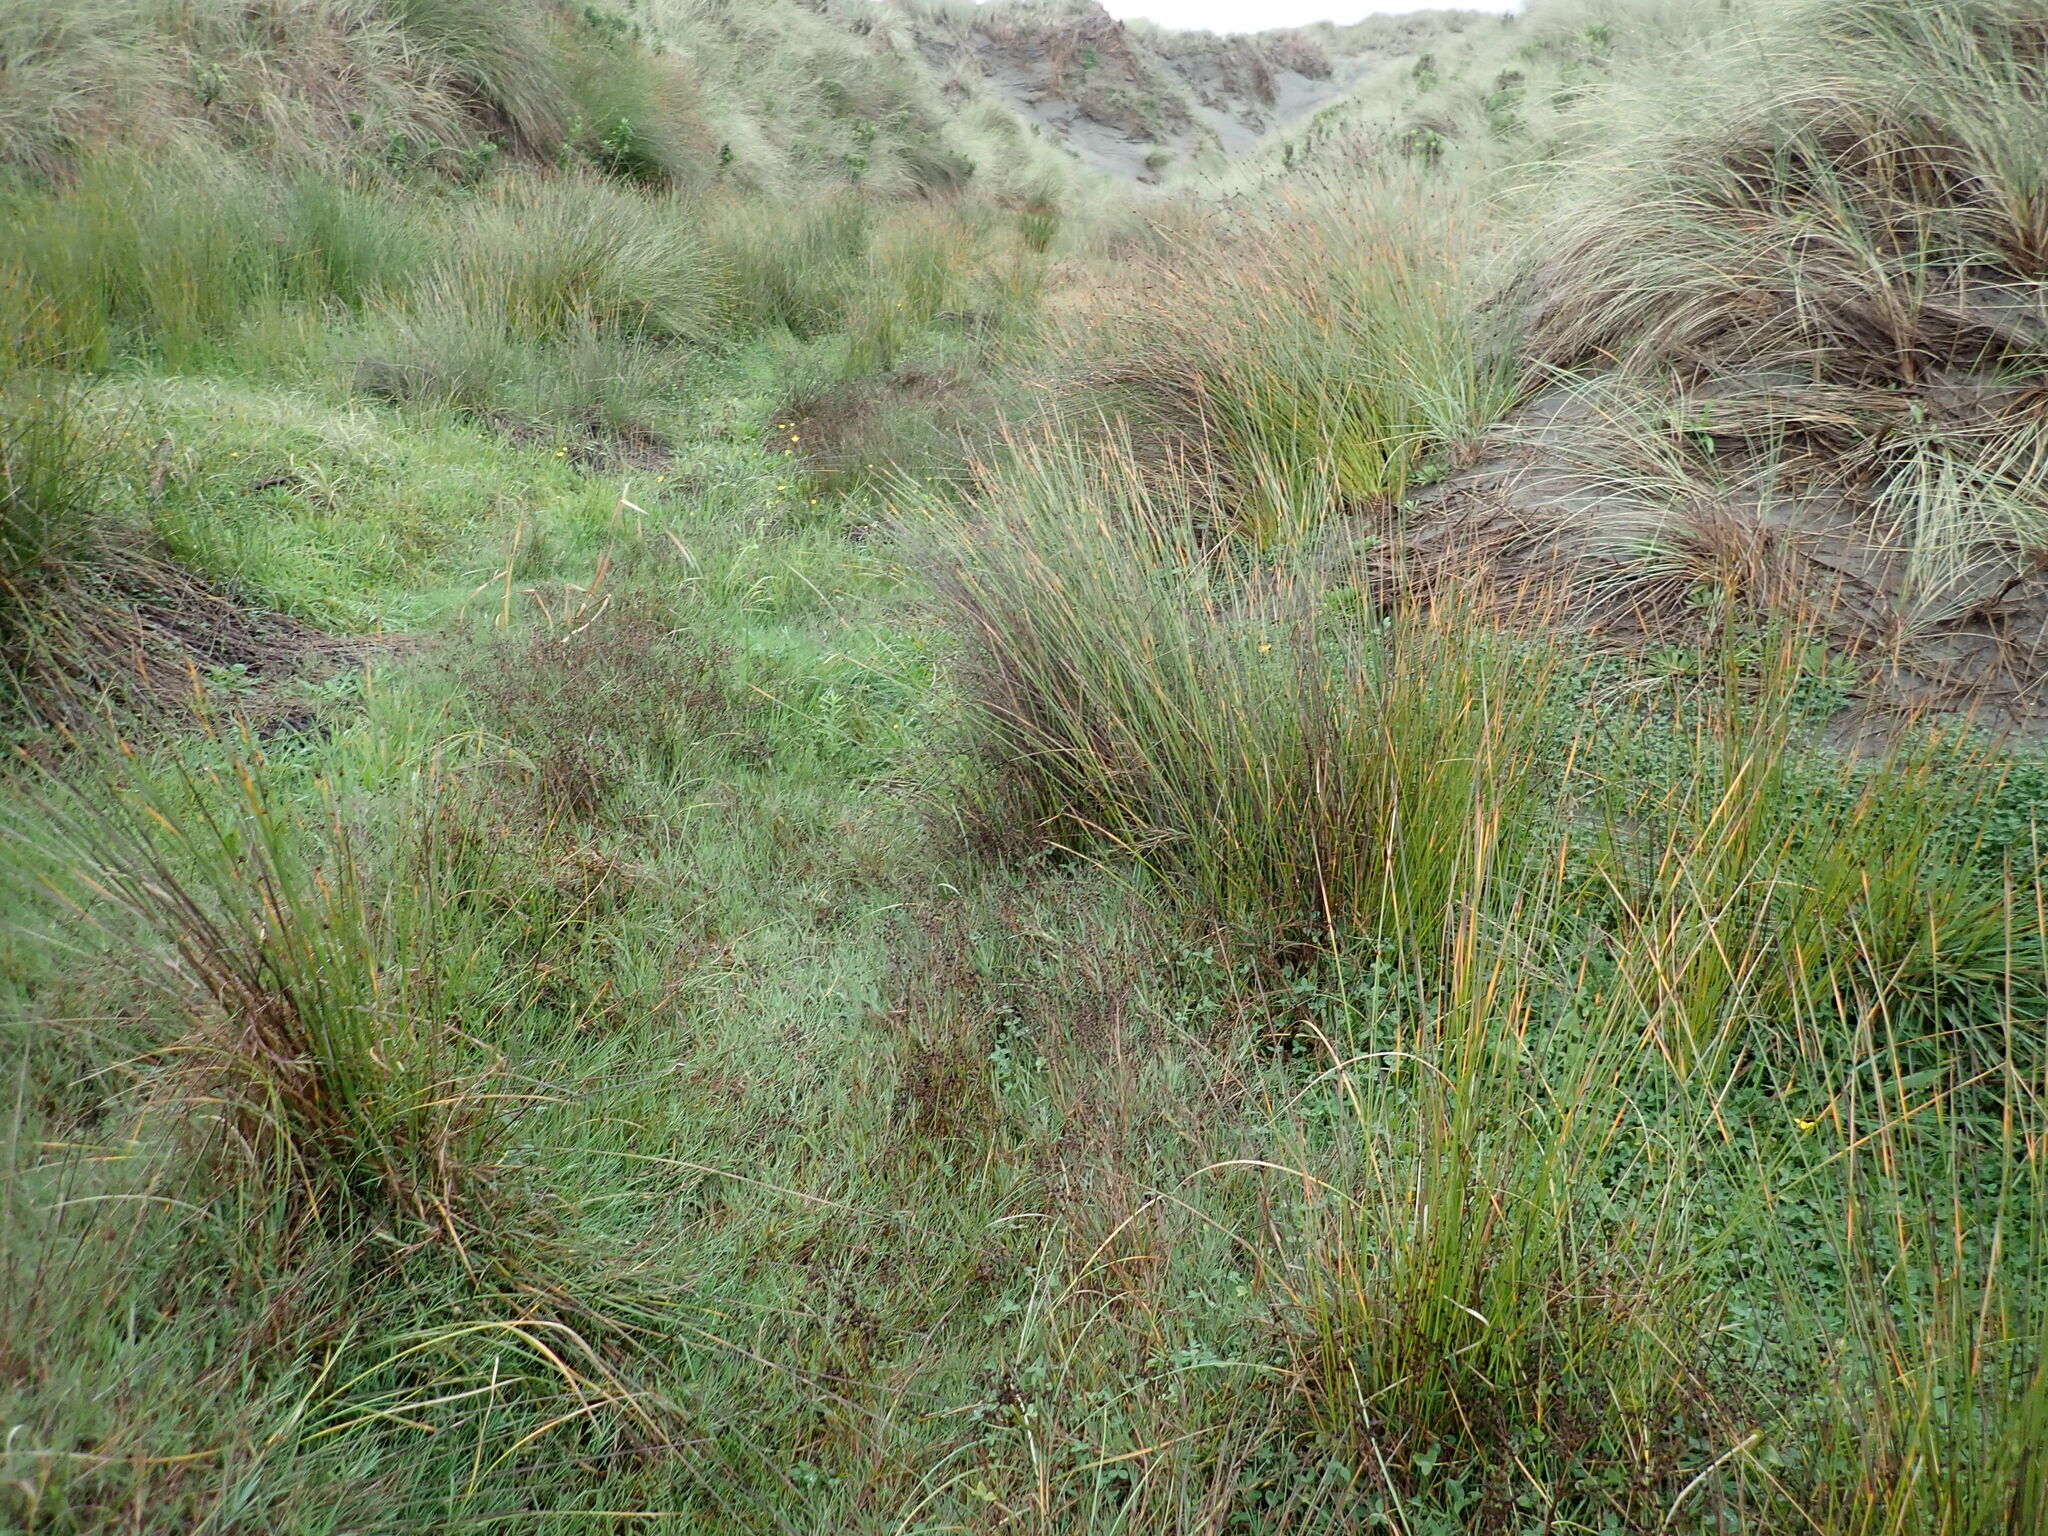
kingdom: Plantae
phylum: Tracheophyta
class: Liliopsida
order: Poales
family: Cyperaceae
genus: Ficinia
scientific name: Ficinia nodosa
